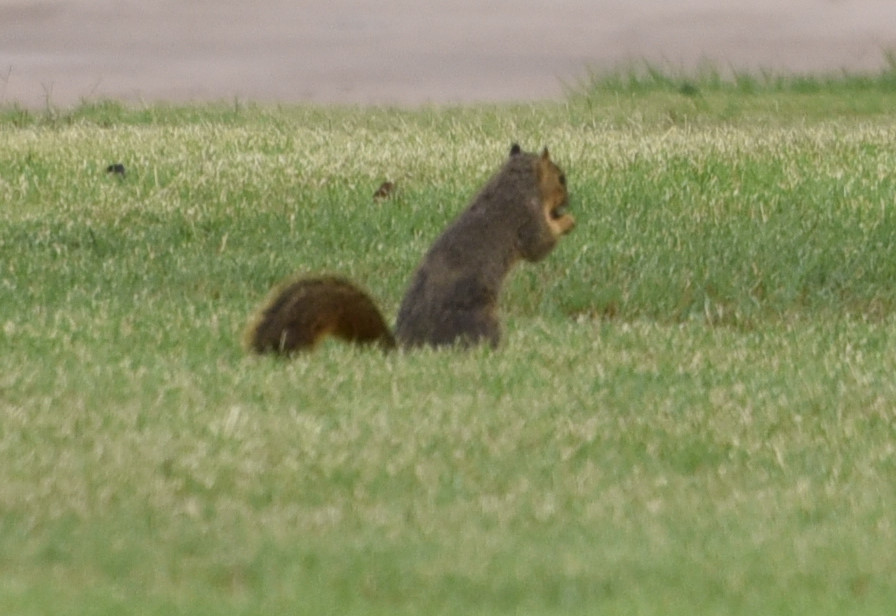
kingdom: Animalia
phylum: Chordata
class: Mammalia
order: Rodentia
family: Sciuridae
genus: Sciurus
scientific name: Sciurus niger
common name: Fox squirrel
